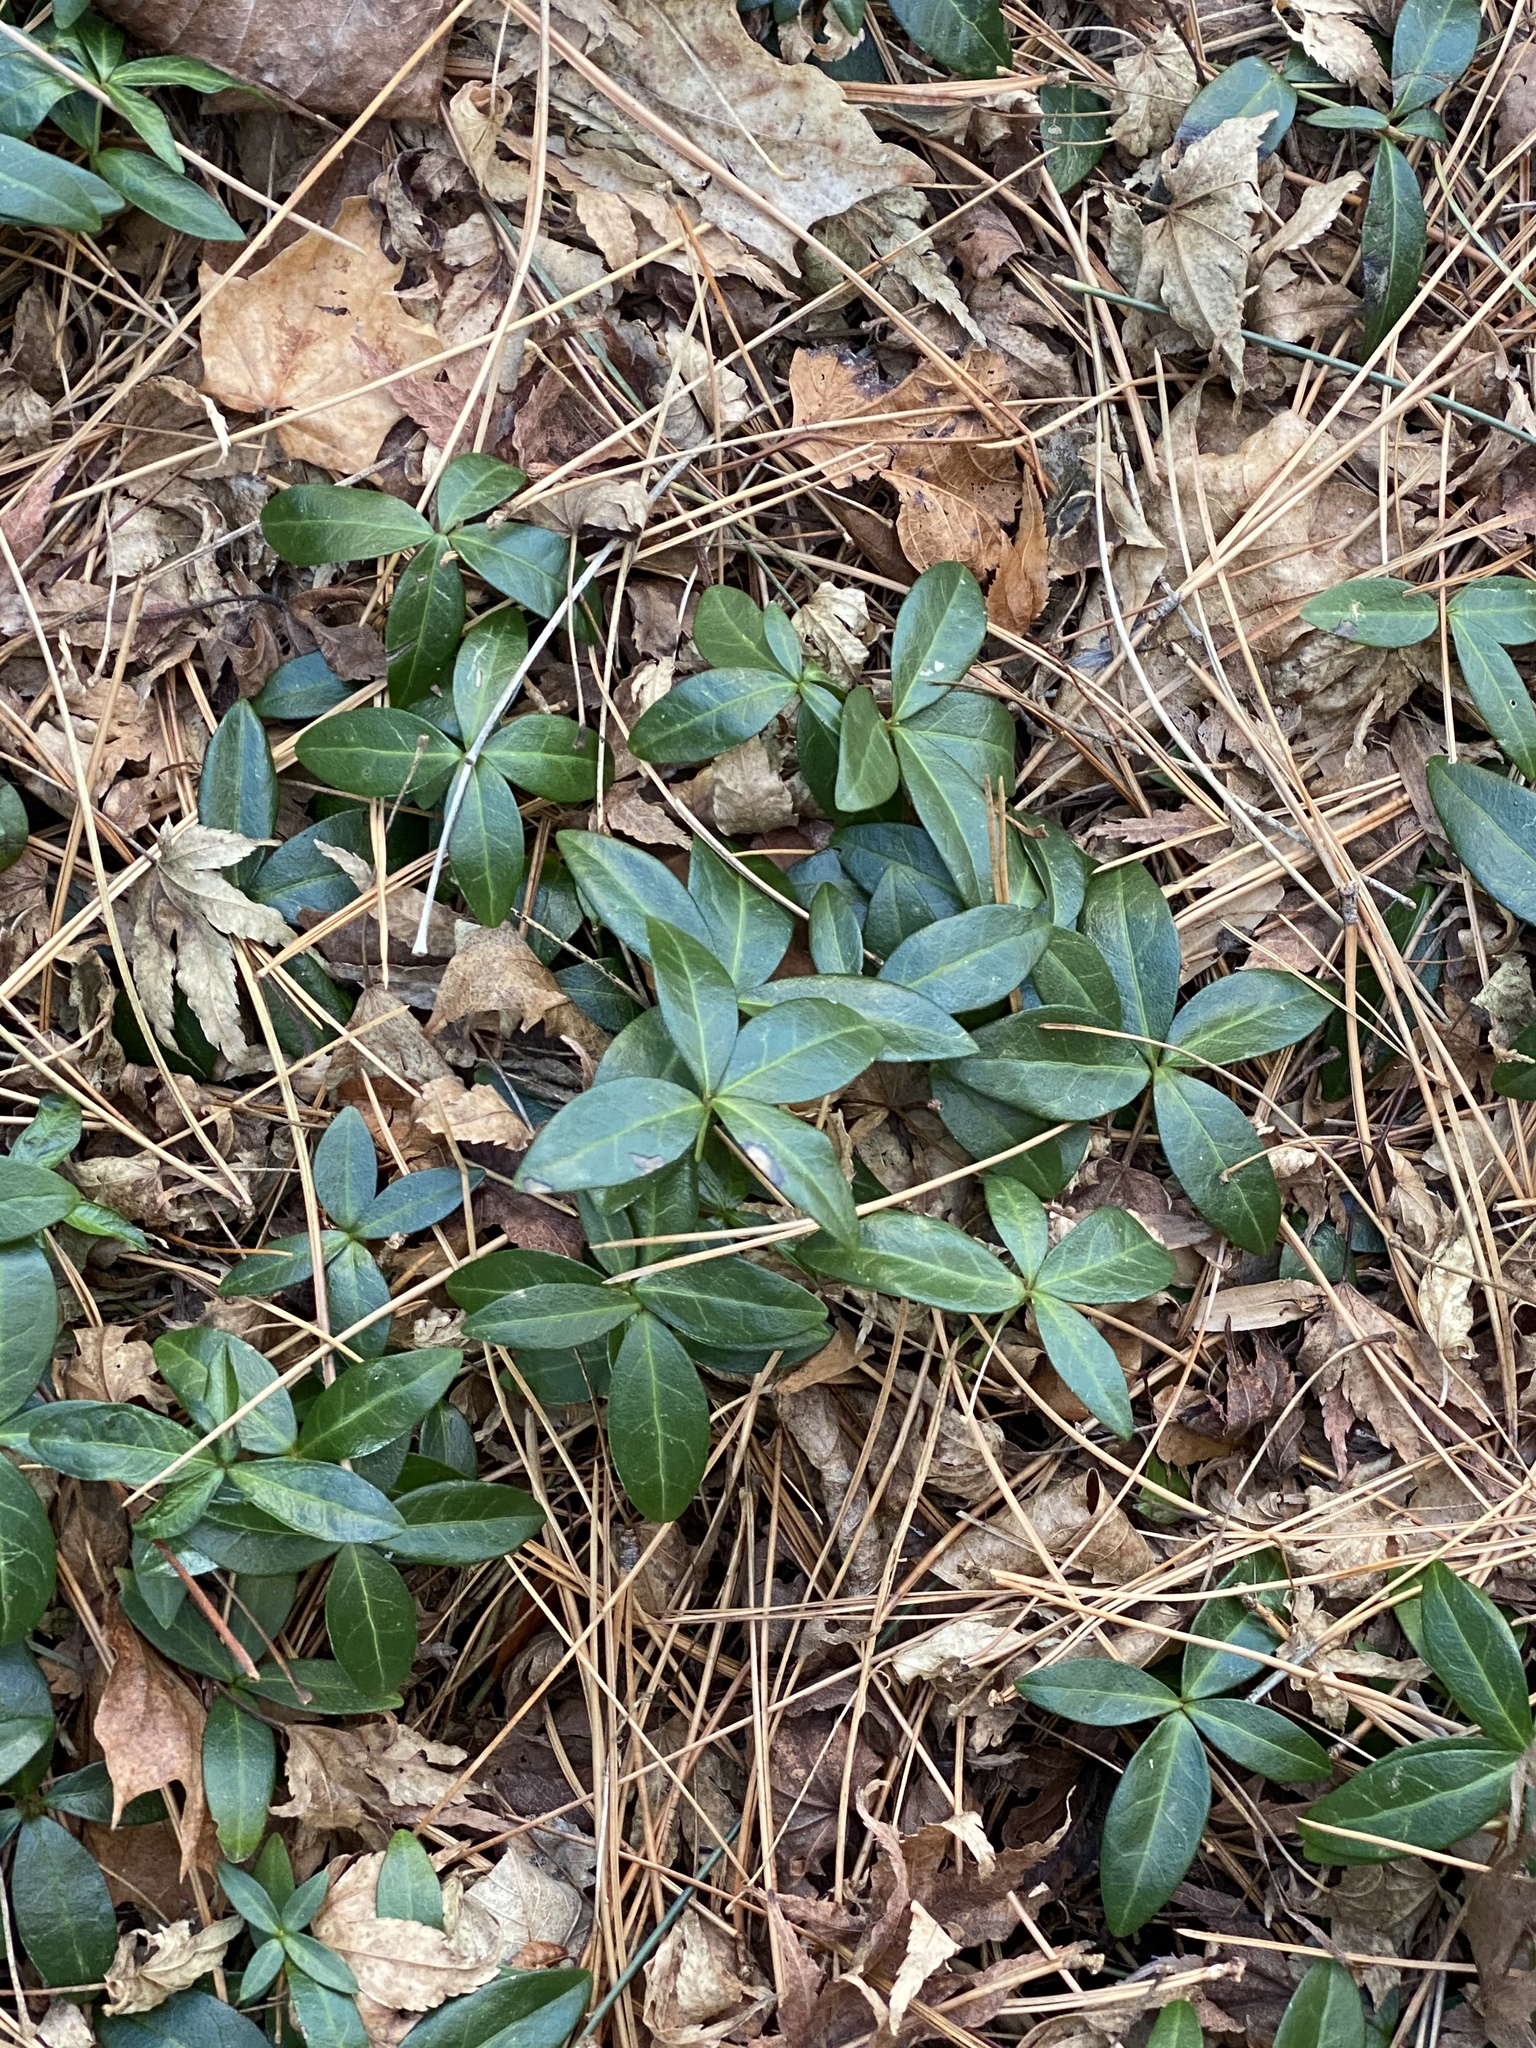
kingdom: Plantae
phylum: Tracheophyta
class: Magnoliopsida
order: Gentianales
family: Apocynaceae
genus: Vinca
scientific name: Vinca minor
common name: Lesser periwinkle
